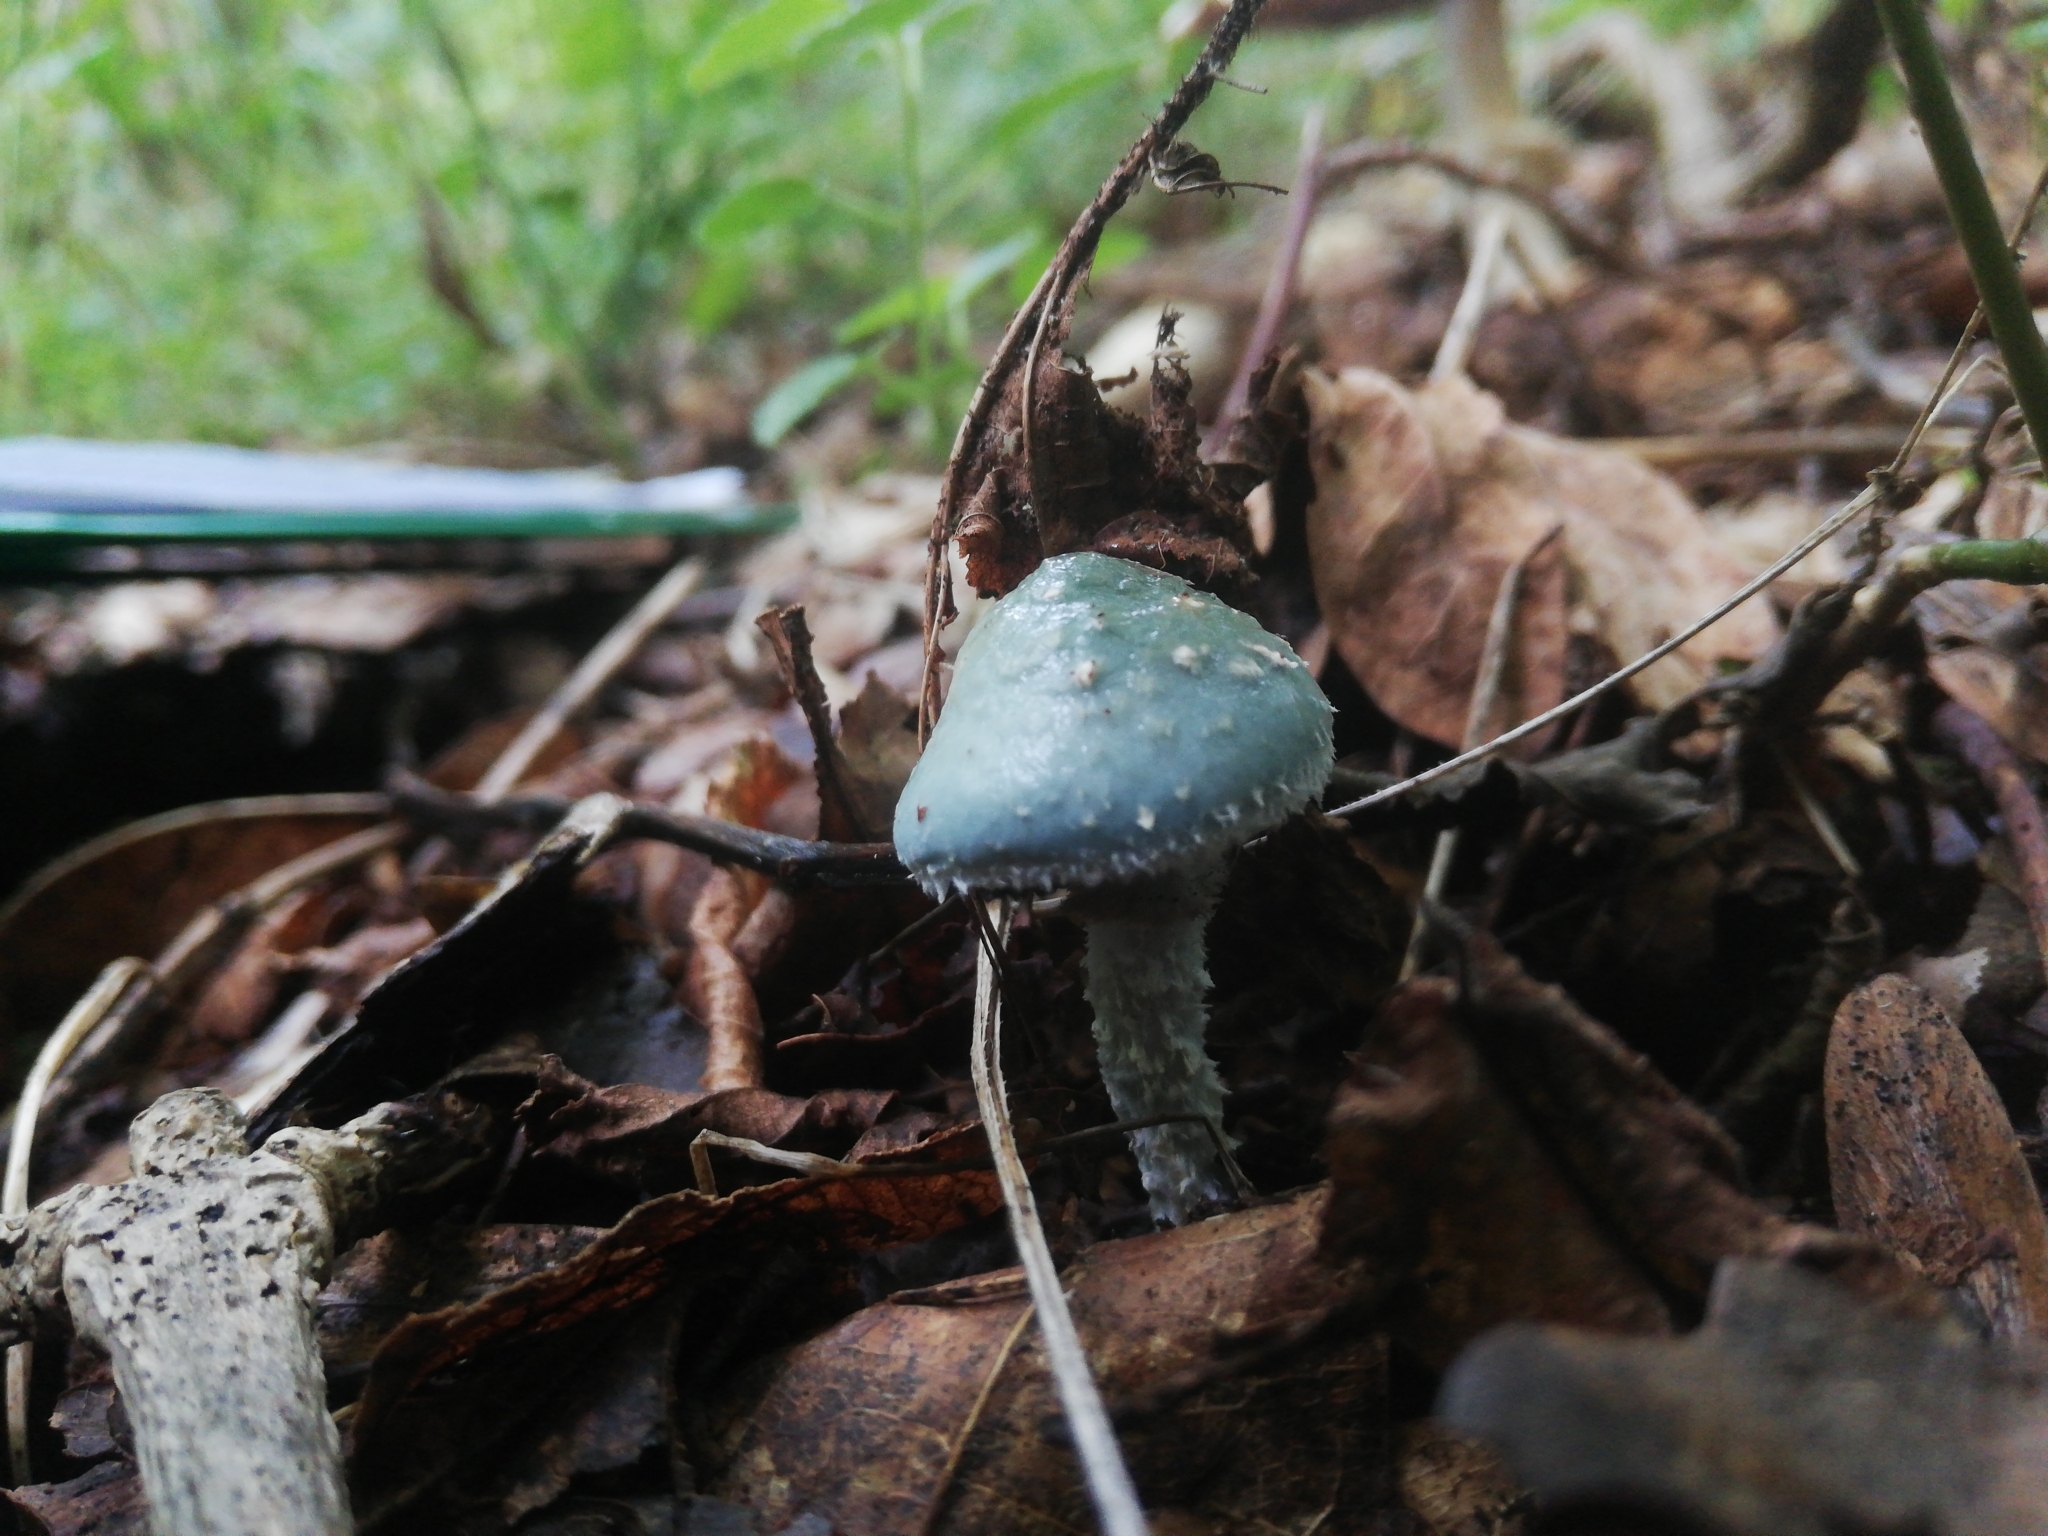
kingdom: Fungi
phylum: Basidiomycota
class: Agaricomycetes
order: Agaricales
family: Strophariaceae
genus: Stropharia
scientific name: Stropharia aeruginosa
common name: Verdigris roundhead
